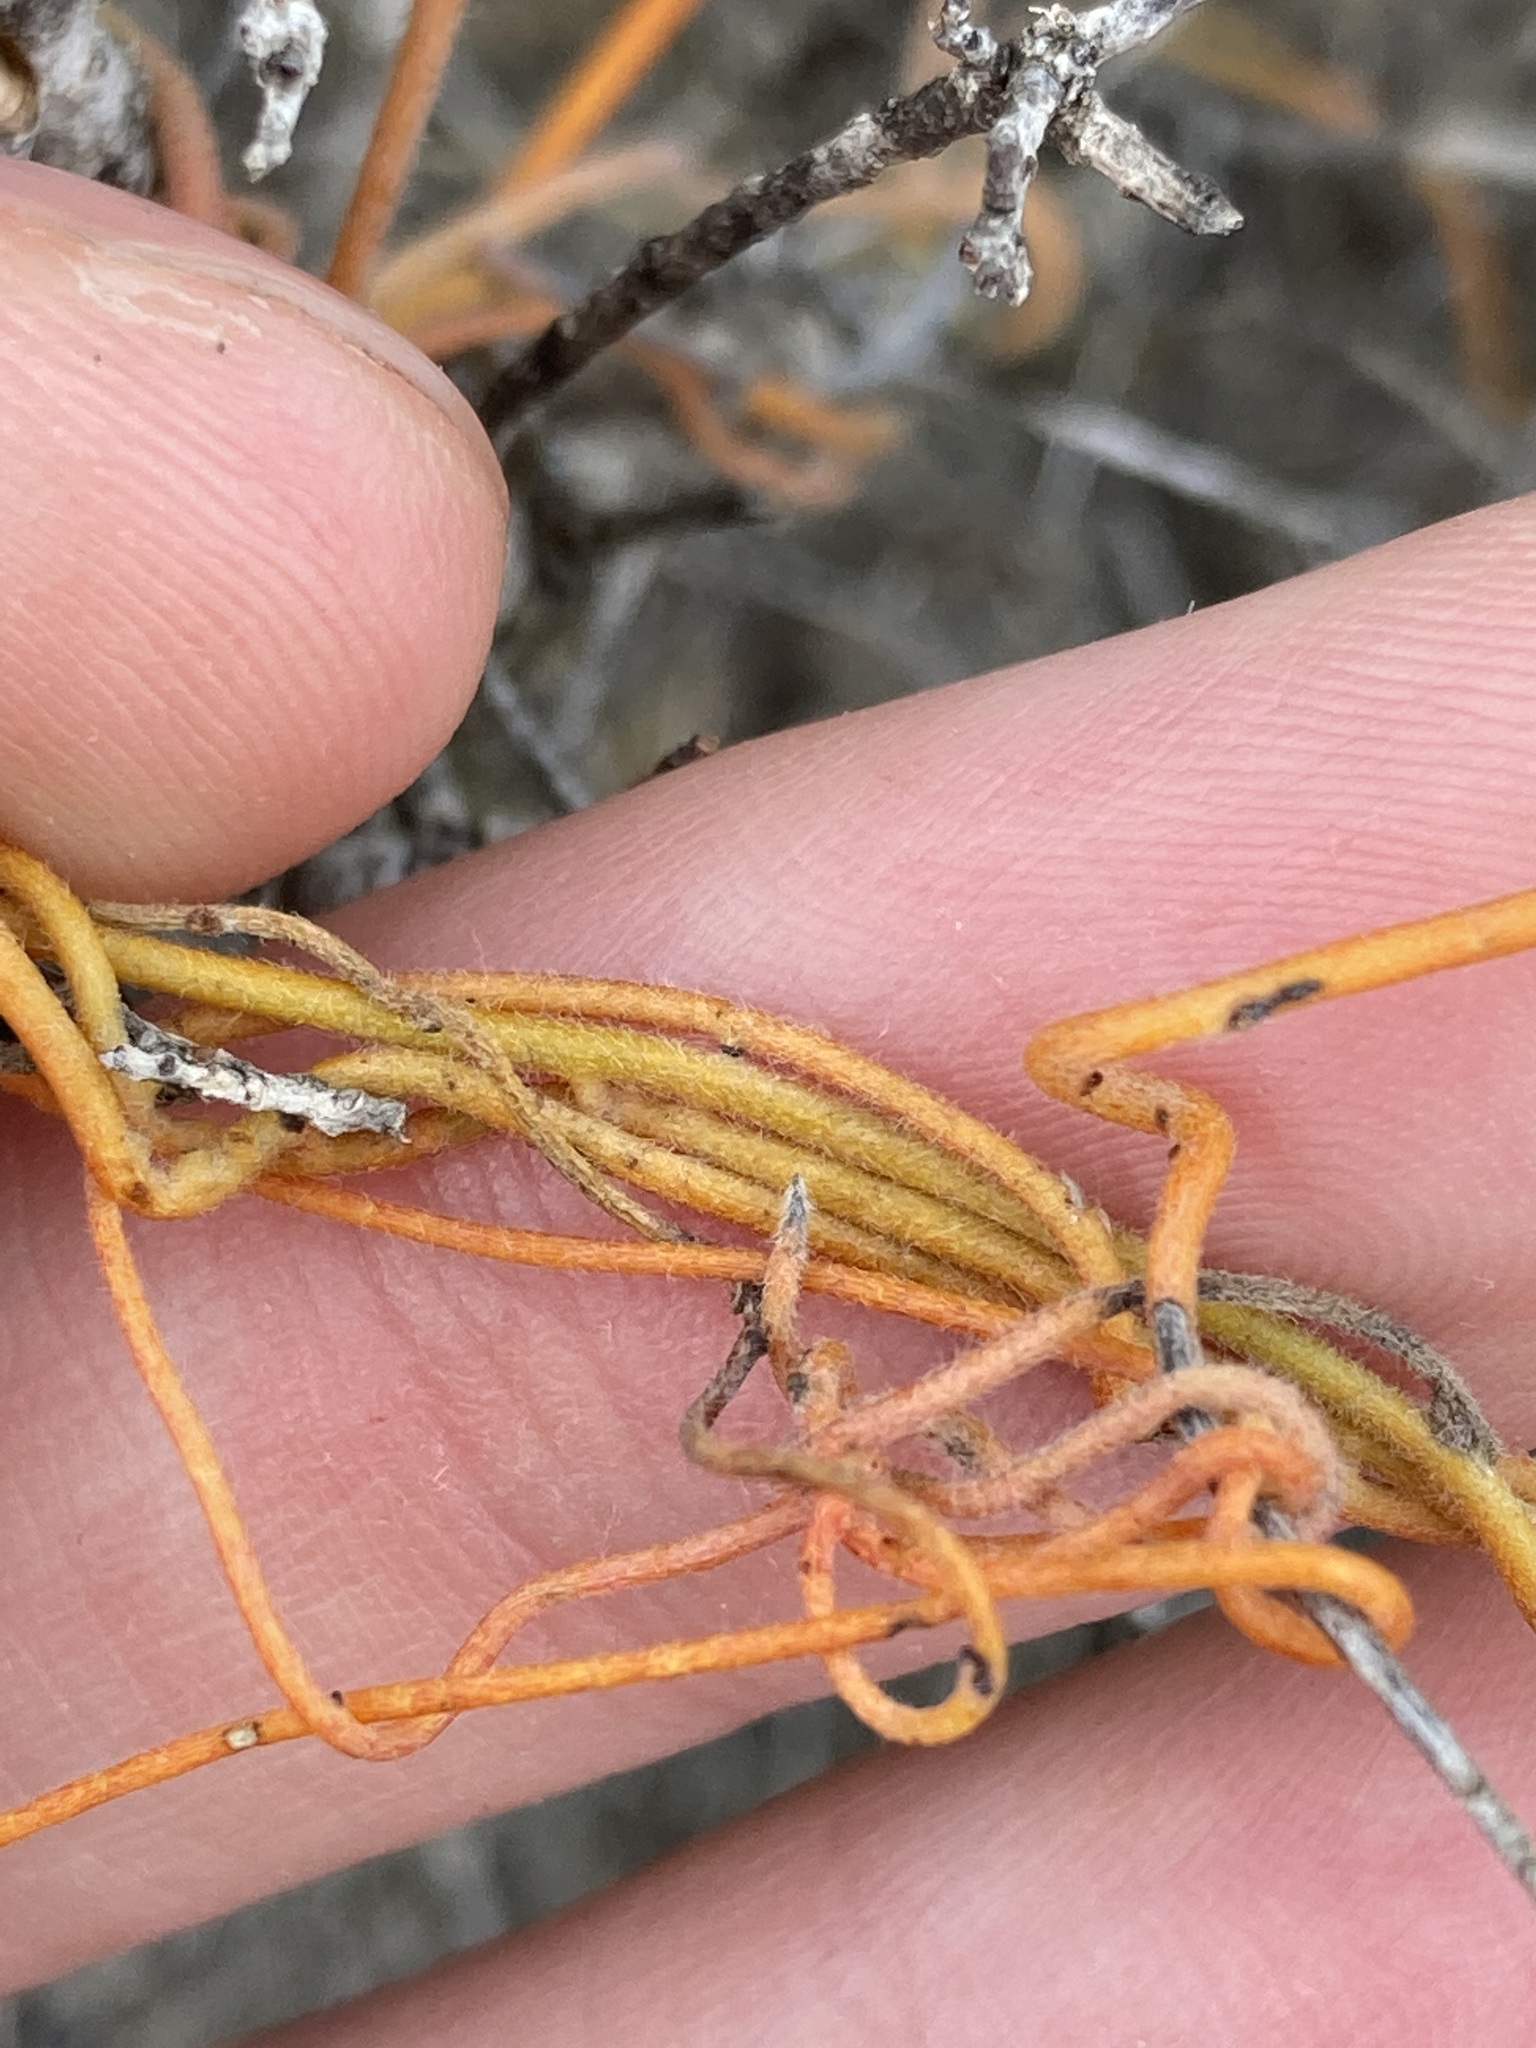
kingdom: Plantae
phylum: Tracheophyta
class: Magnoliopsida
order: Laurales
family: Lauraceae
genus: Cassytha
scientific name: Cassytha aurea
